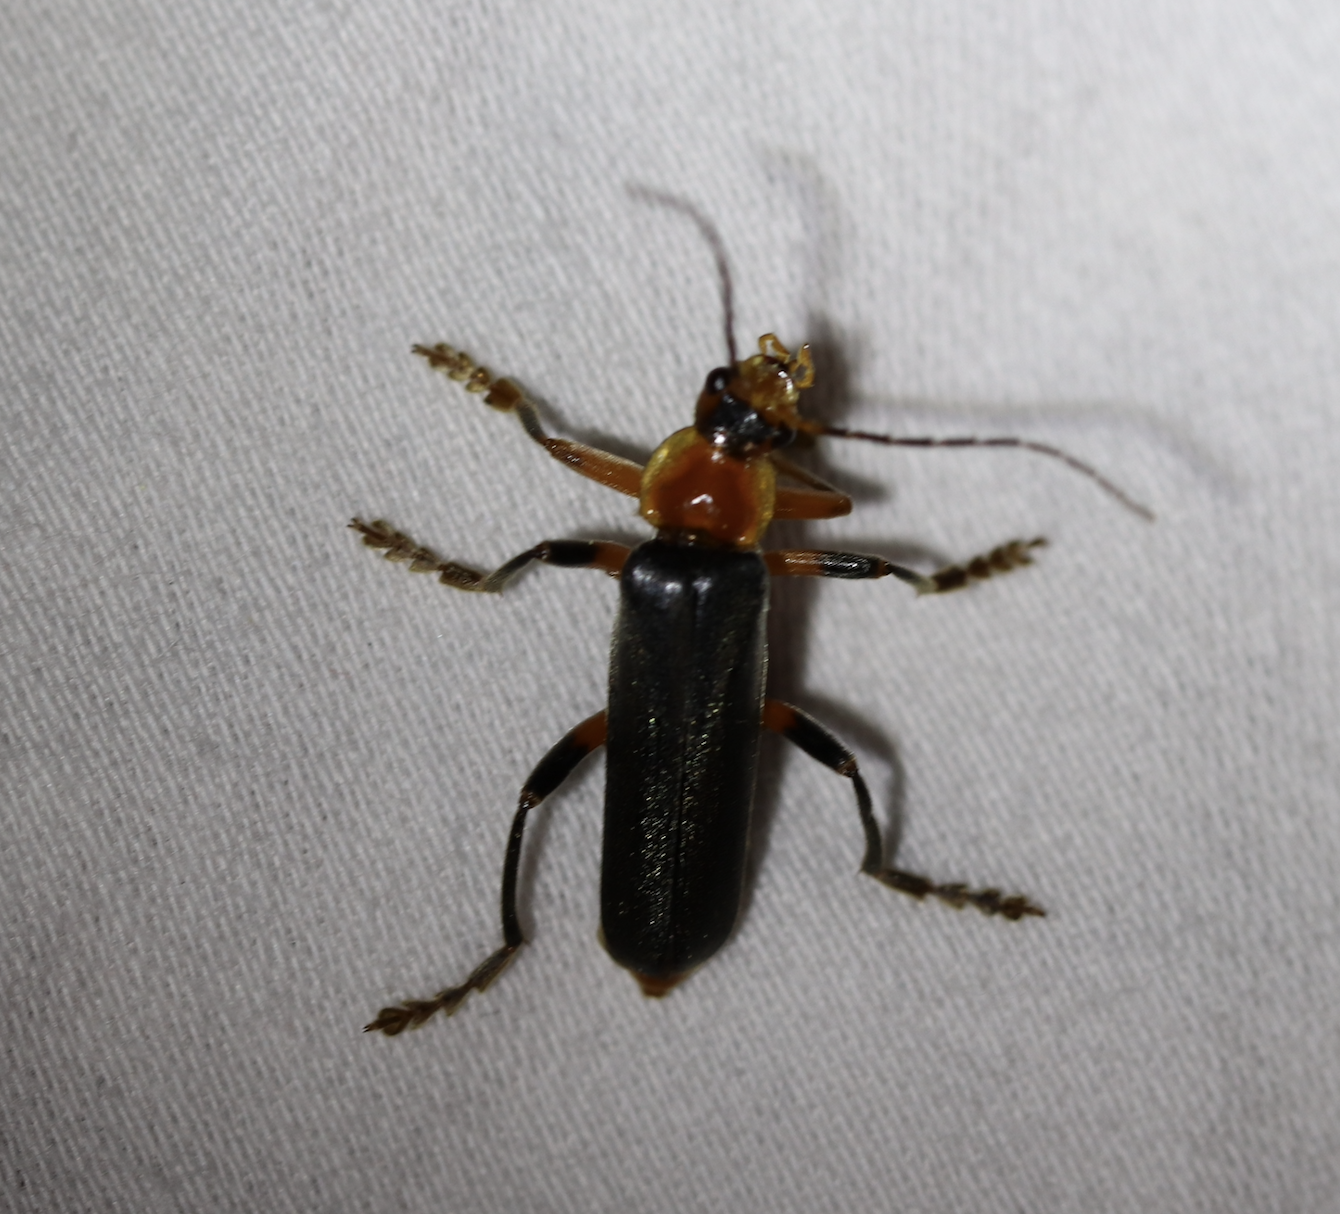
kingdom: Animalia
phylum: Arthropoda
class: Insecta
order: Coleoptera
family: Cantharidae
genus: Cantharis
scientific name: Cantharis livida
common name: Livid soldier beetle
